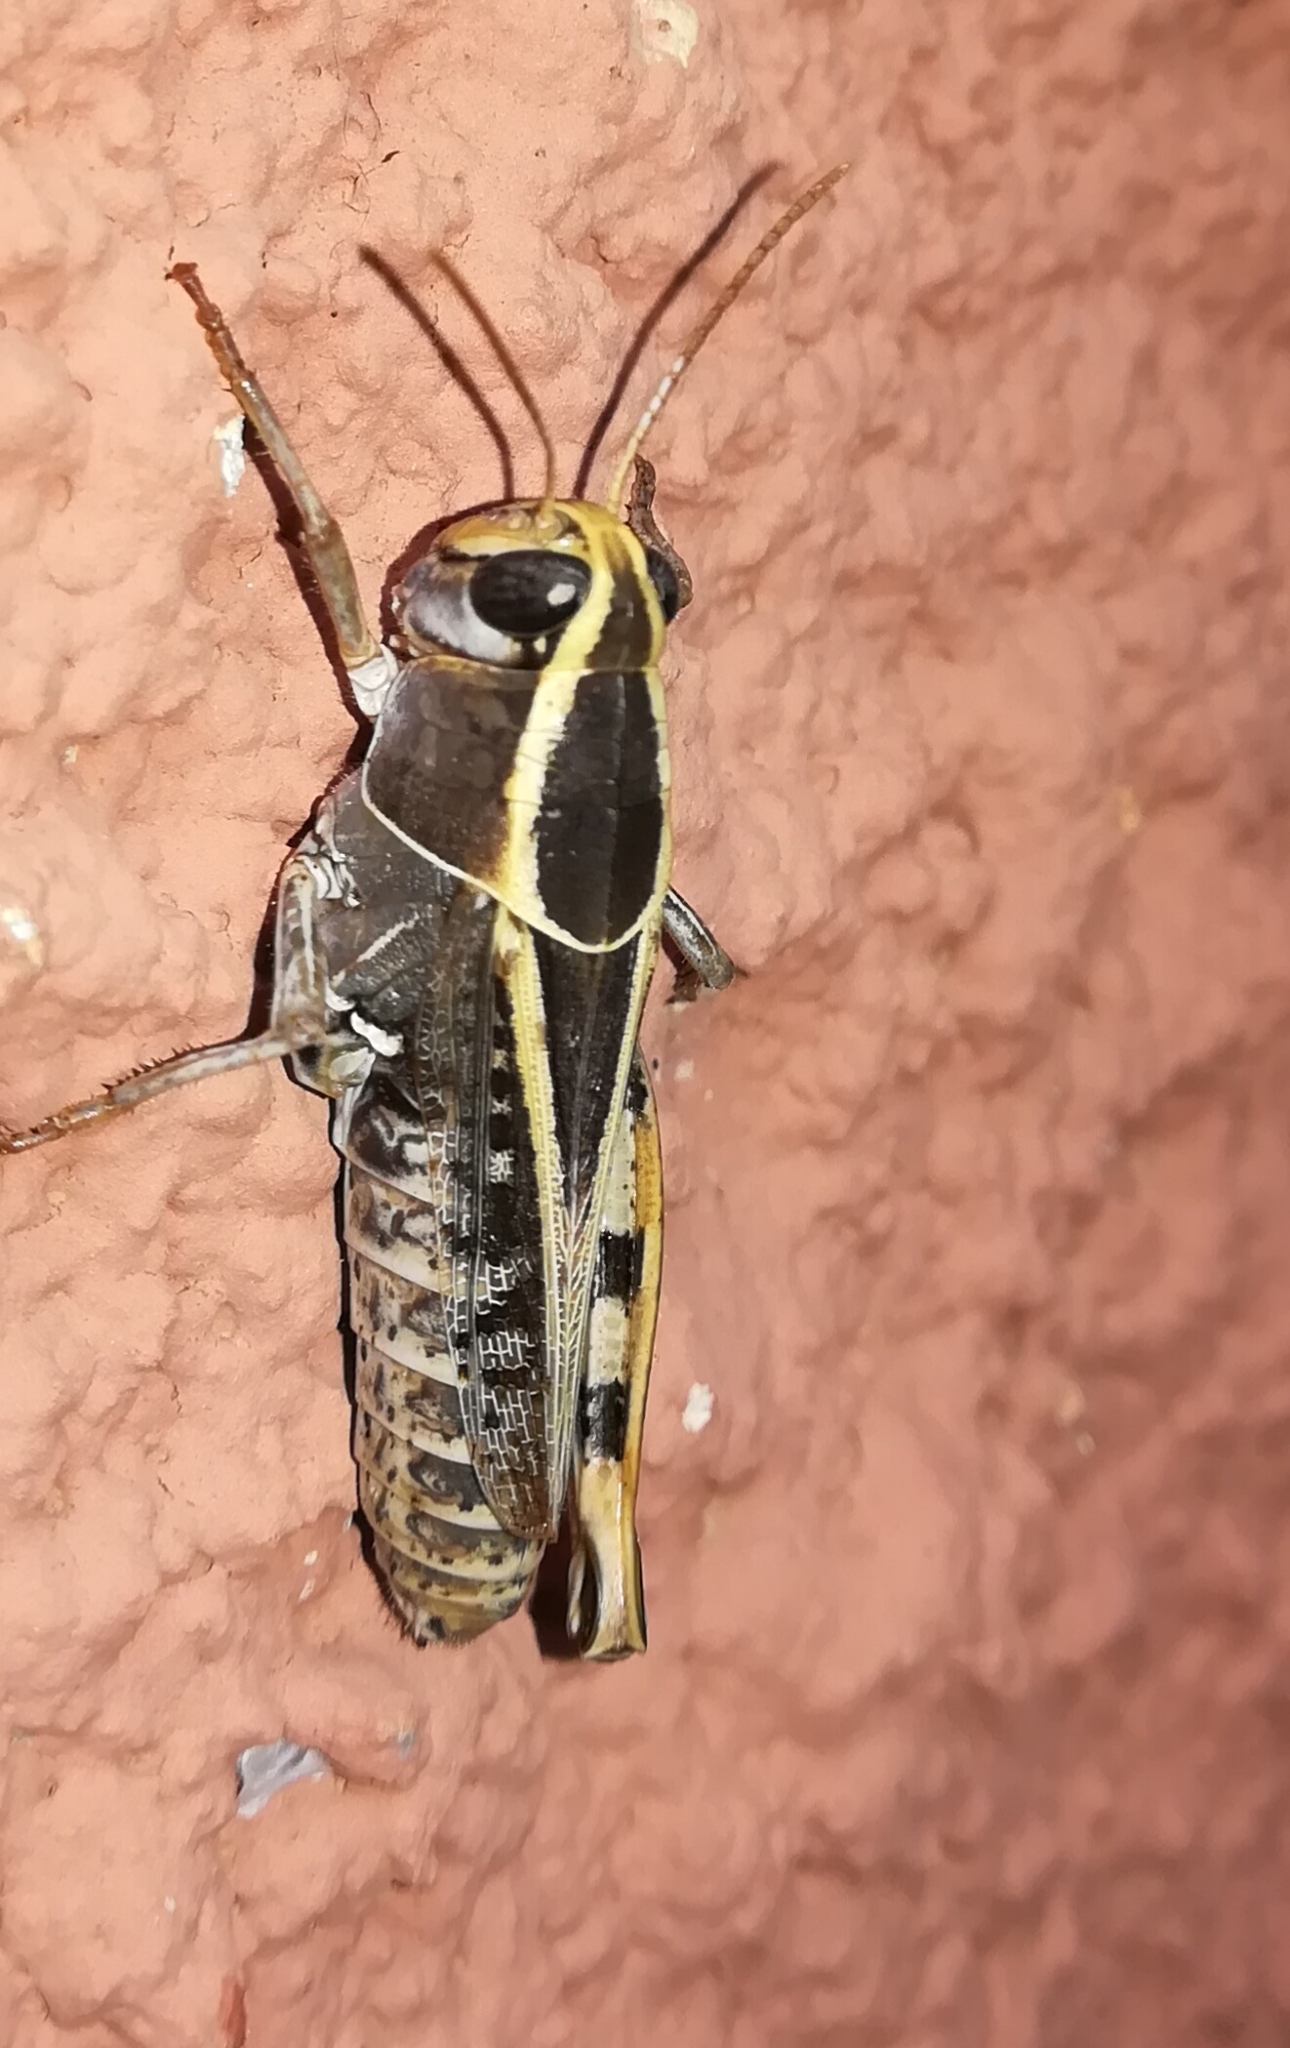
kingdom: Animalia
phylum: Arthropoda
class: Insecta
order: Orthoptera
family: Acrididae
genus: Calliptamus
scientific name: Calliptamus wattenwylianus
